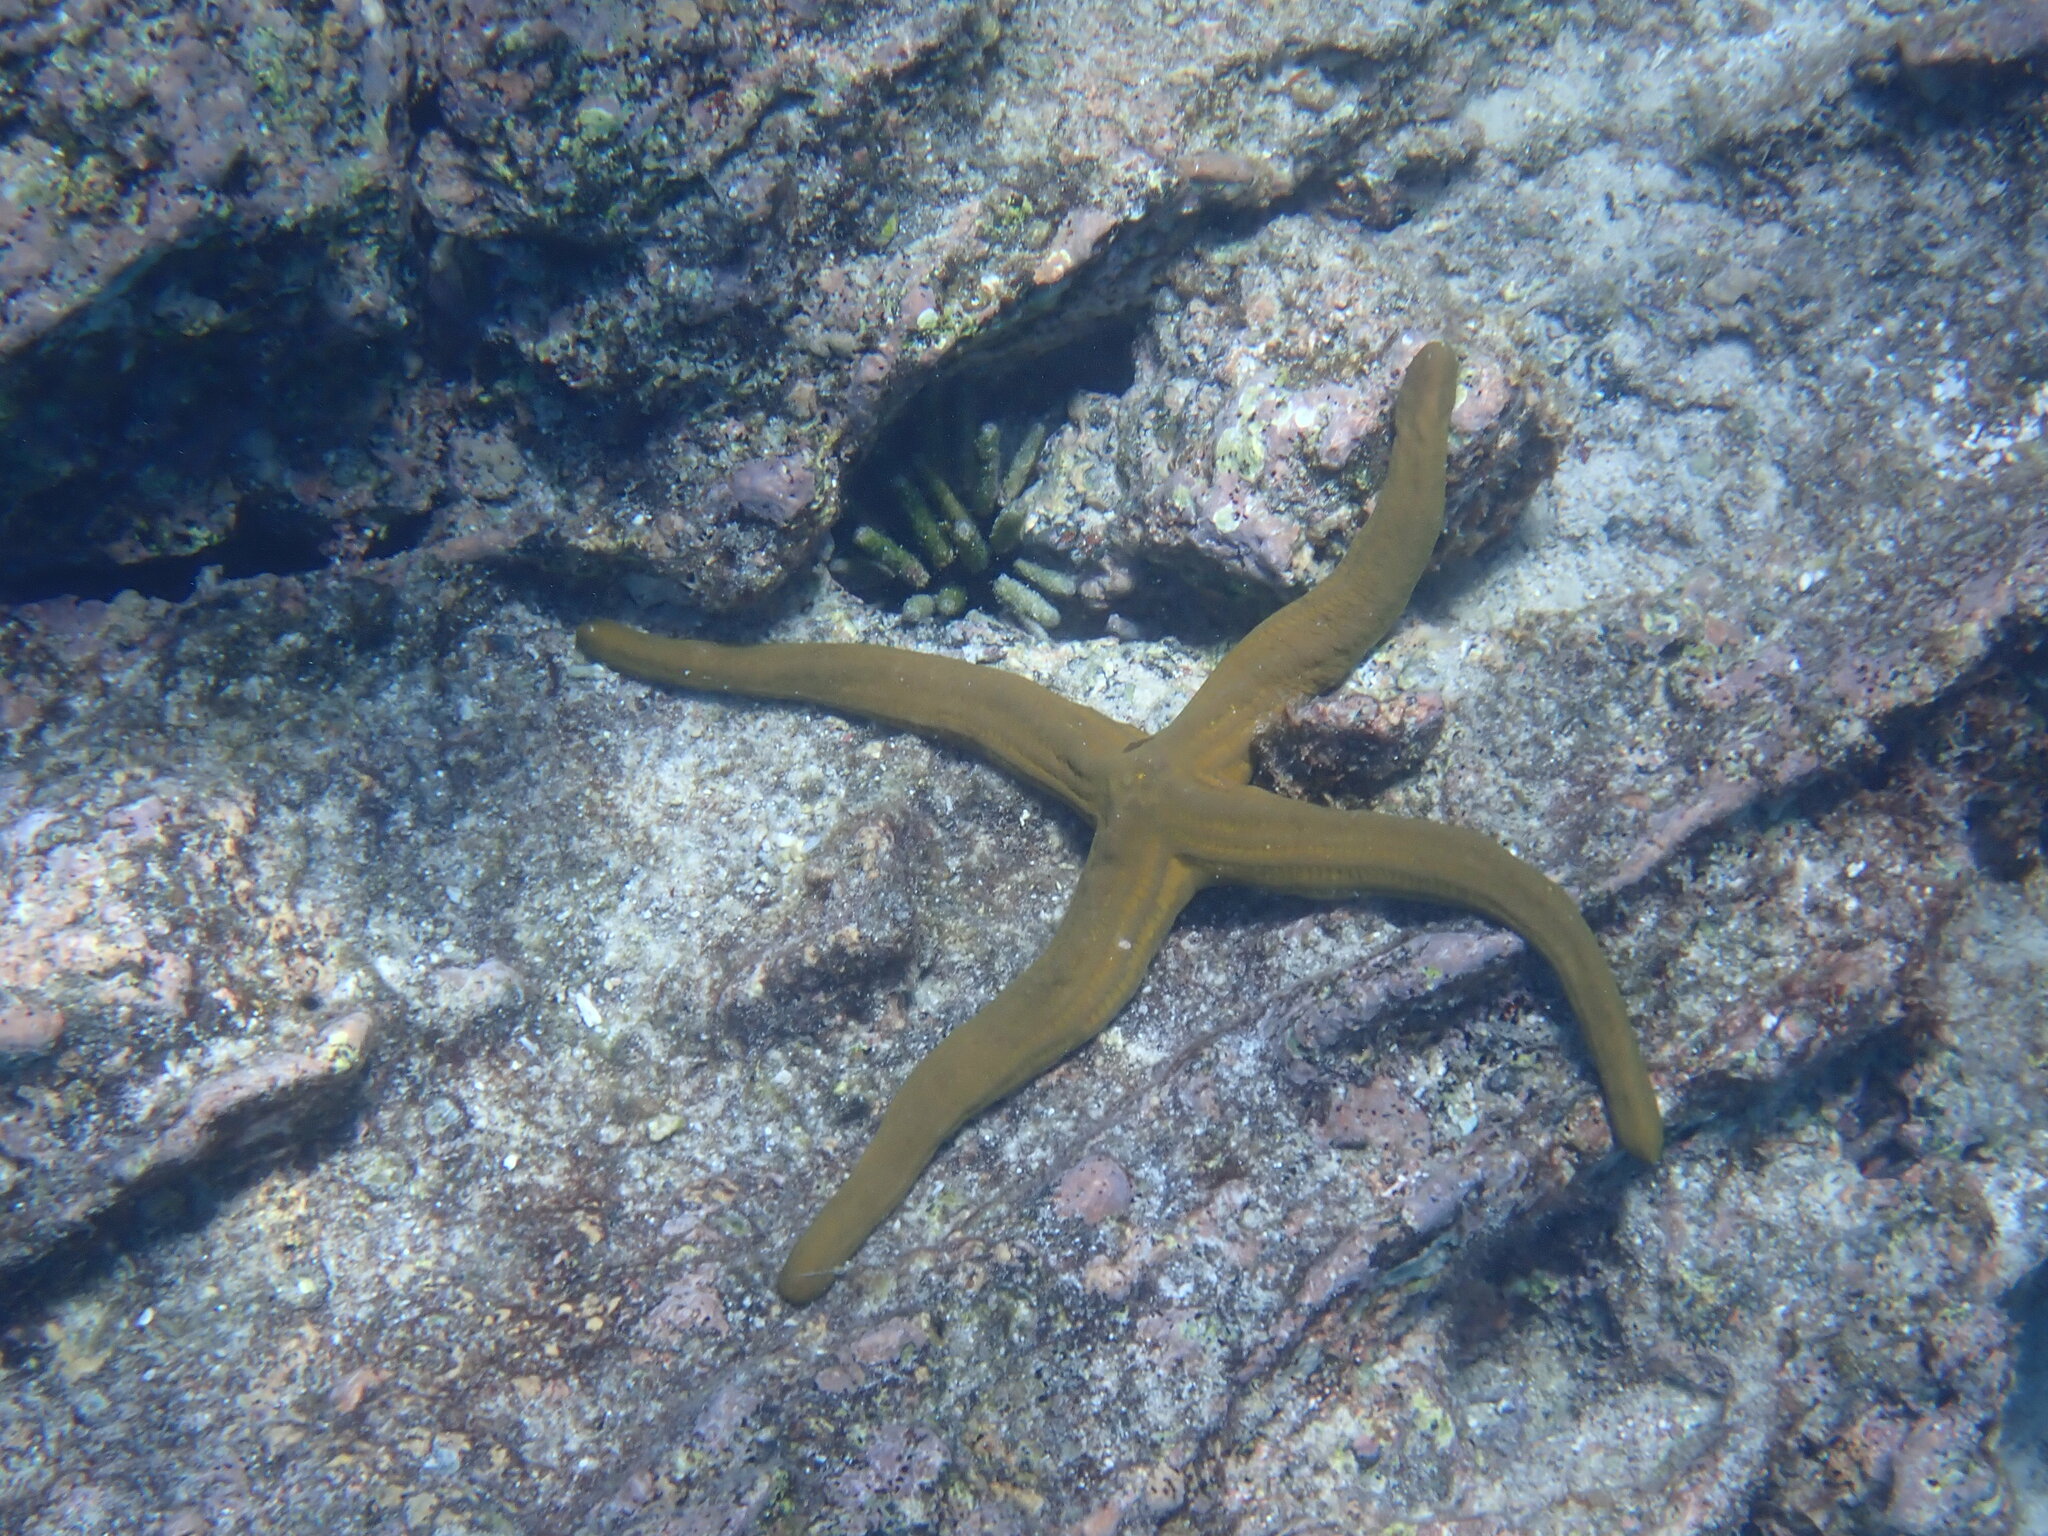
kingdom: Animalia
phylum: Echinodermata
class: Asteroidea
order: Valvatida
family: Ophidiasteridae
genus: Pharia
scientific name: Pharia pyramidata
